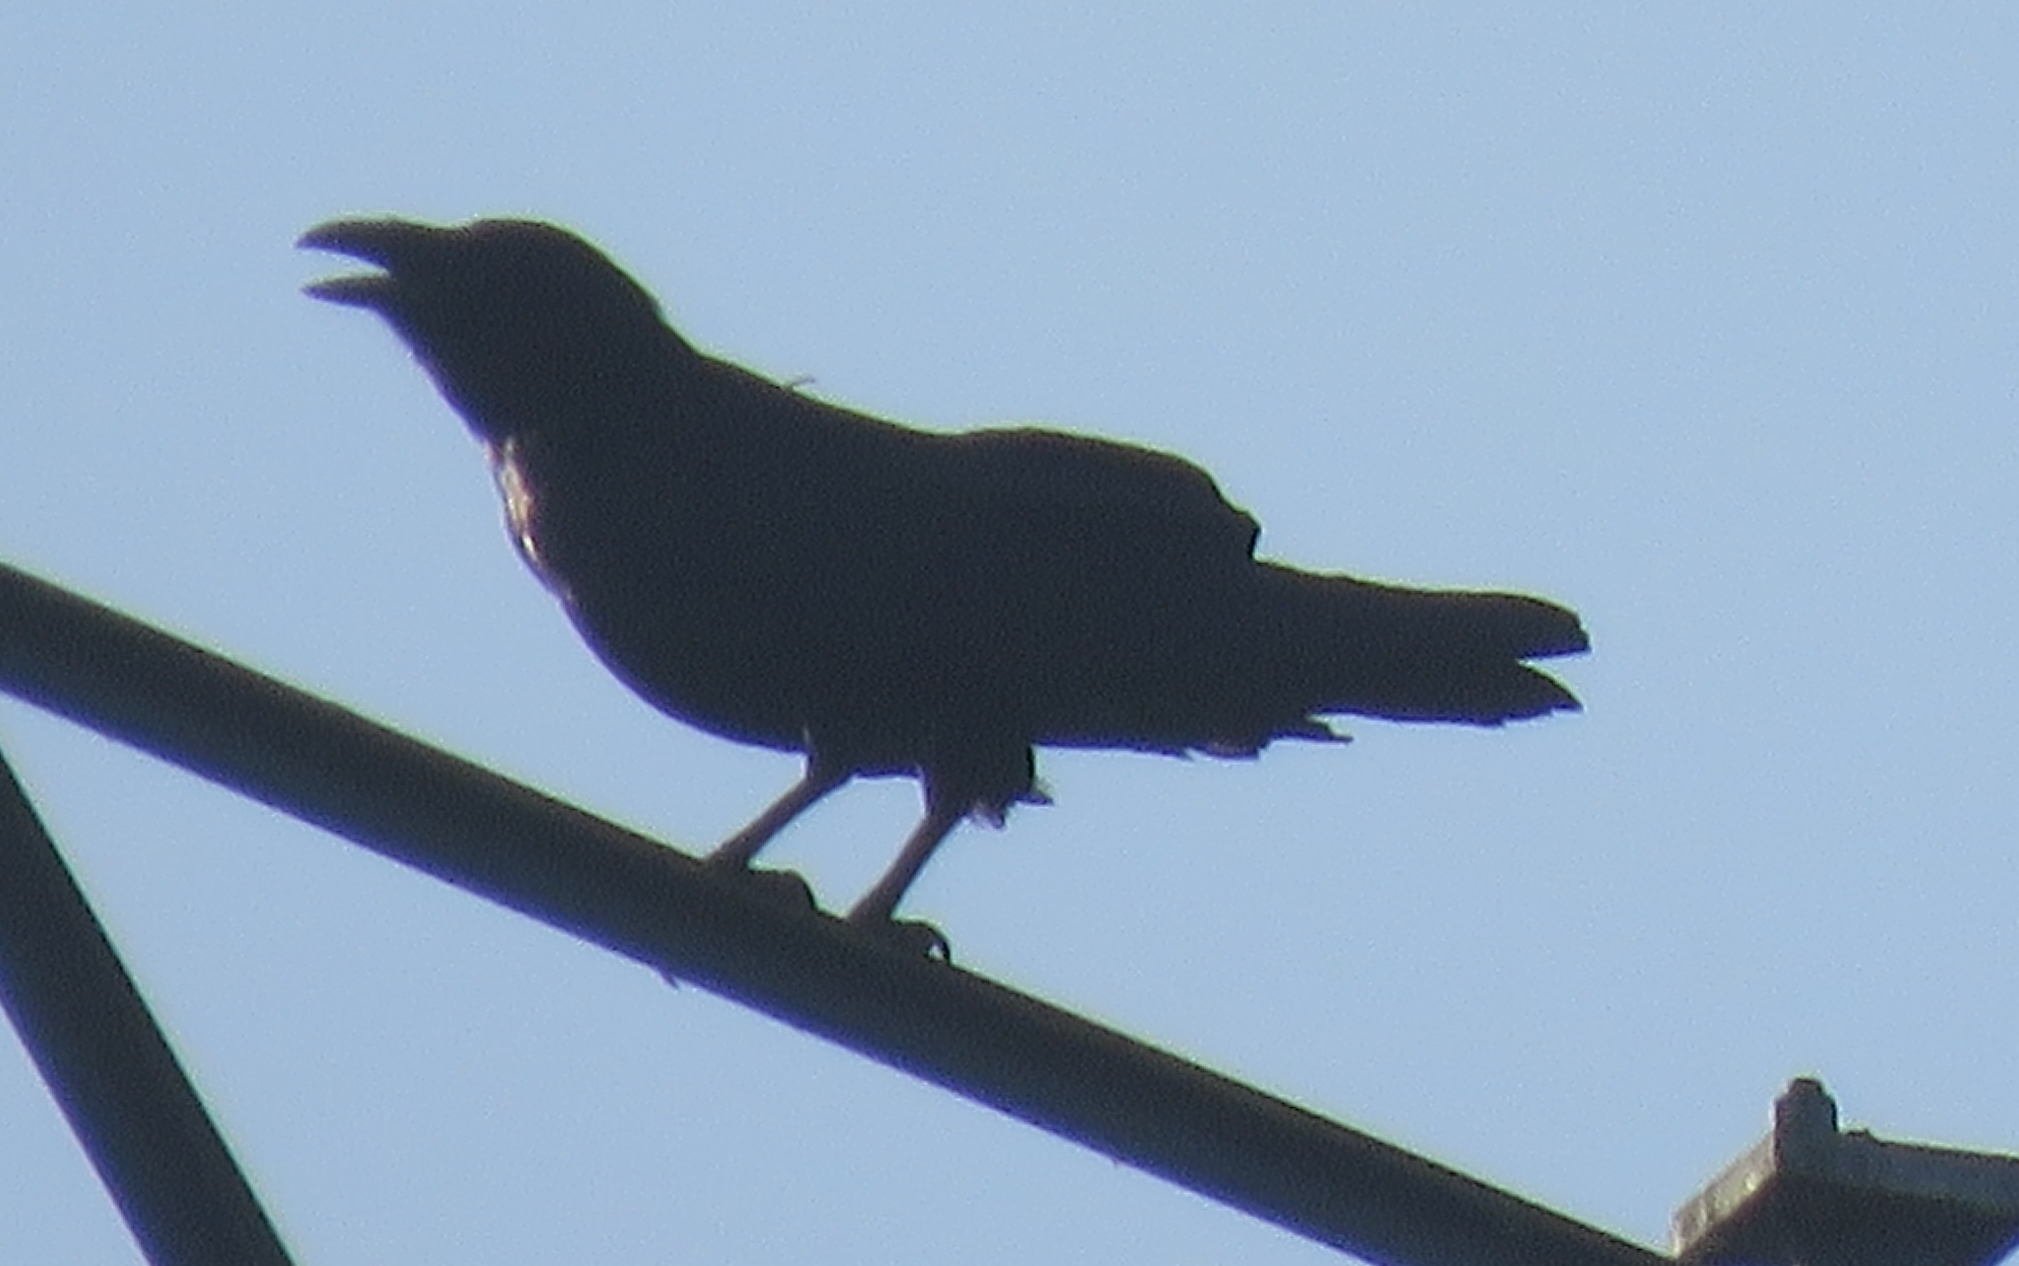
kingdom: Animalia
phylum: Chordata
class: Aves
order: Passeriformes
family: Corvidae
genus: Corvus
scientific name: Corvus corax
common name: Common raven
